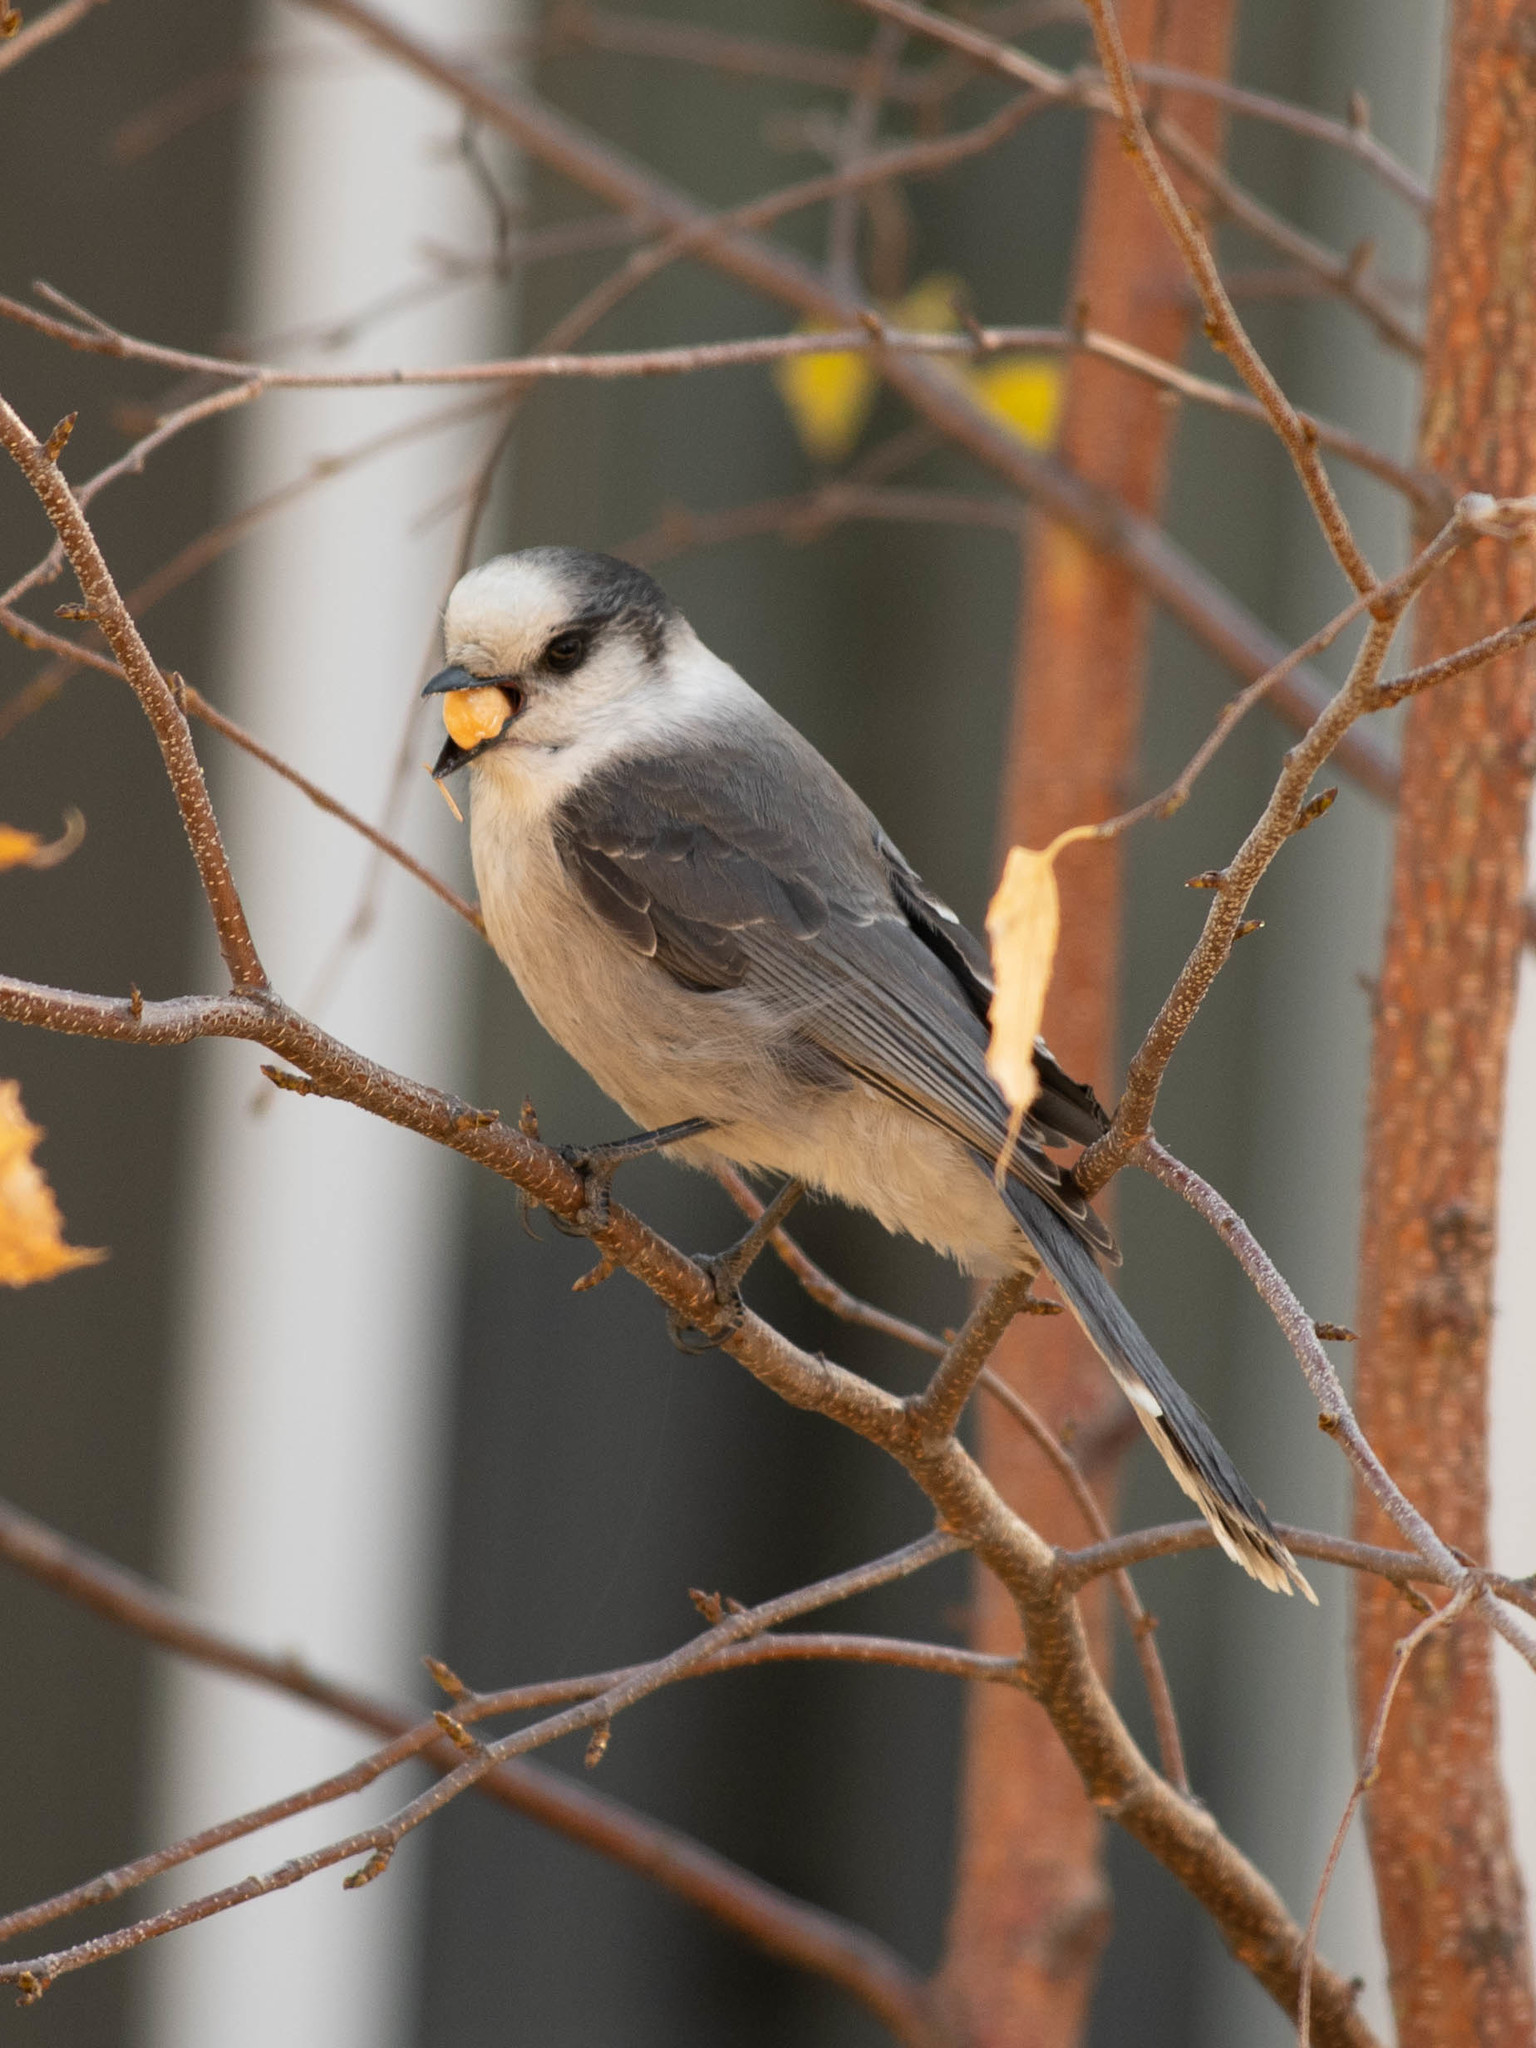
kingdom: Animalia
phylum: Chordata
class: Aves
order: Passeriformes
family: Corvidae
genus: Perisoreus
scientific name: Perisoreus canadensis
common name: Gray jay
